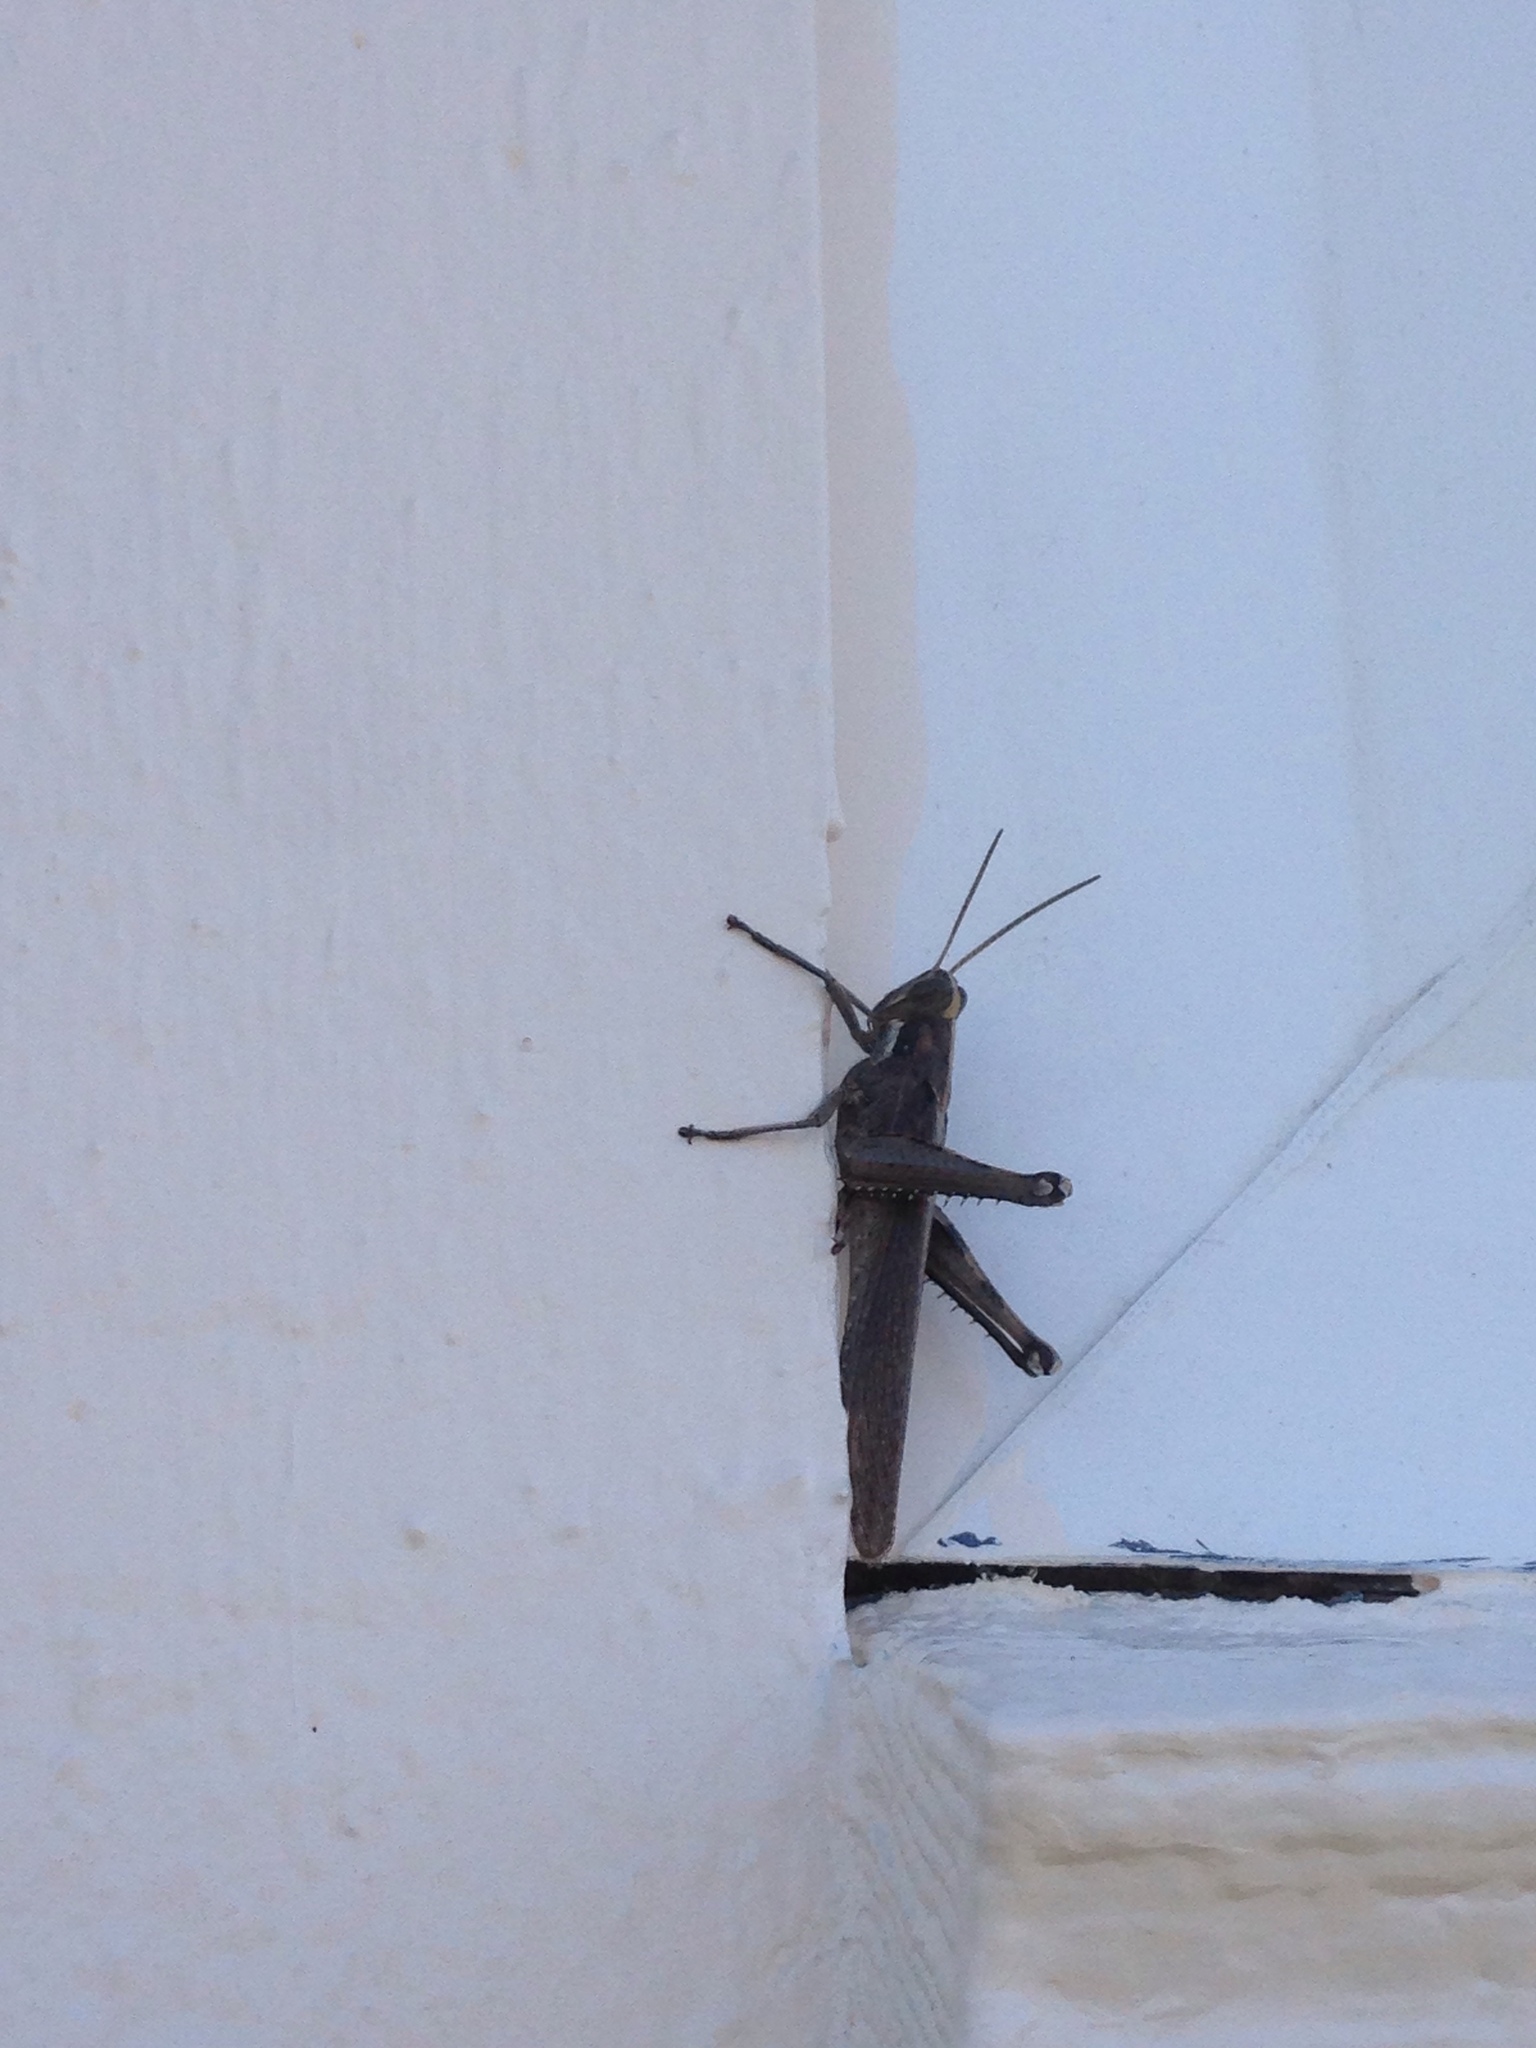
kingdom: Animalia
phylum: Arthropoda
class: Insecta
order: Orthoptera
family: Acrididae
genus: Schistocerca
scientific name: Schistocerca nitens
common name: Vagrant grasshopper
